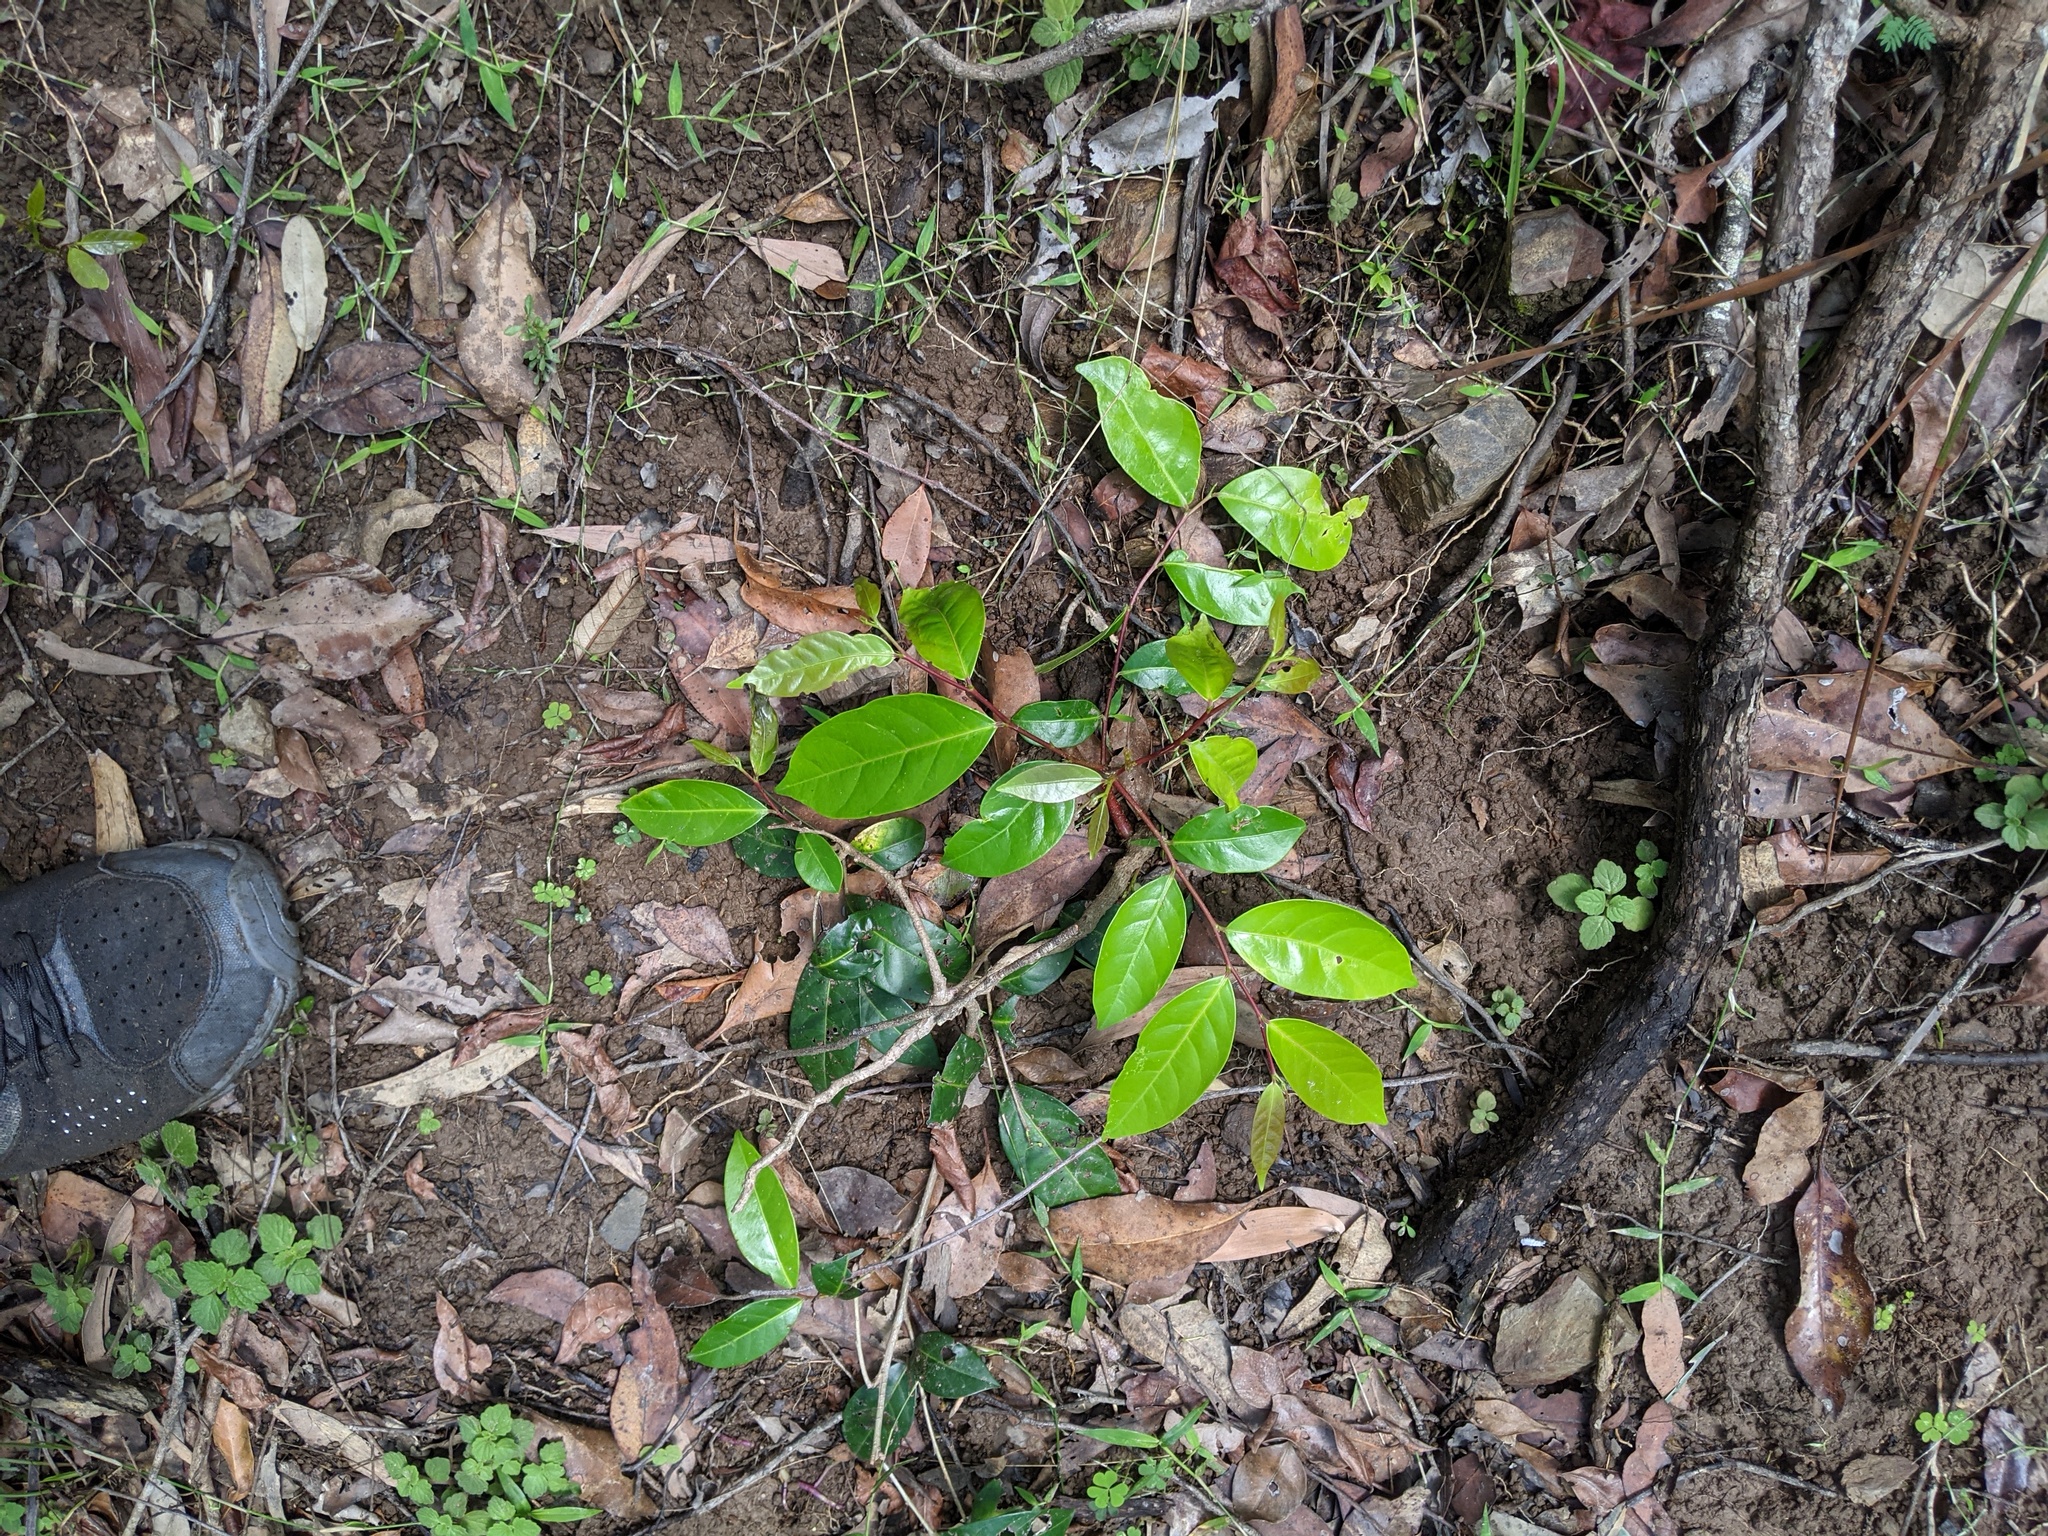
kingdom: Plantae
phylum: Tracheophyta
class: Magnoliopsida
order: Malpighiales
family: Phyllanthaceae
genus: Glochidion
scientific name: Glochidion ferdinandi
